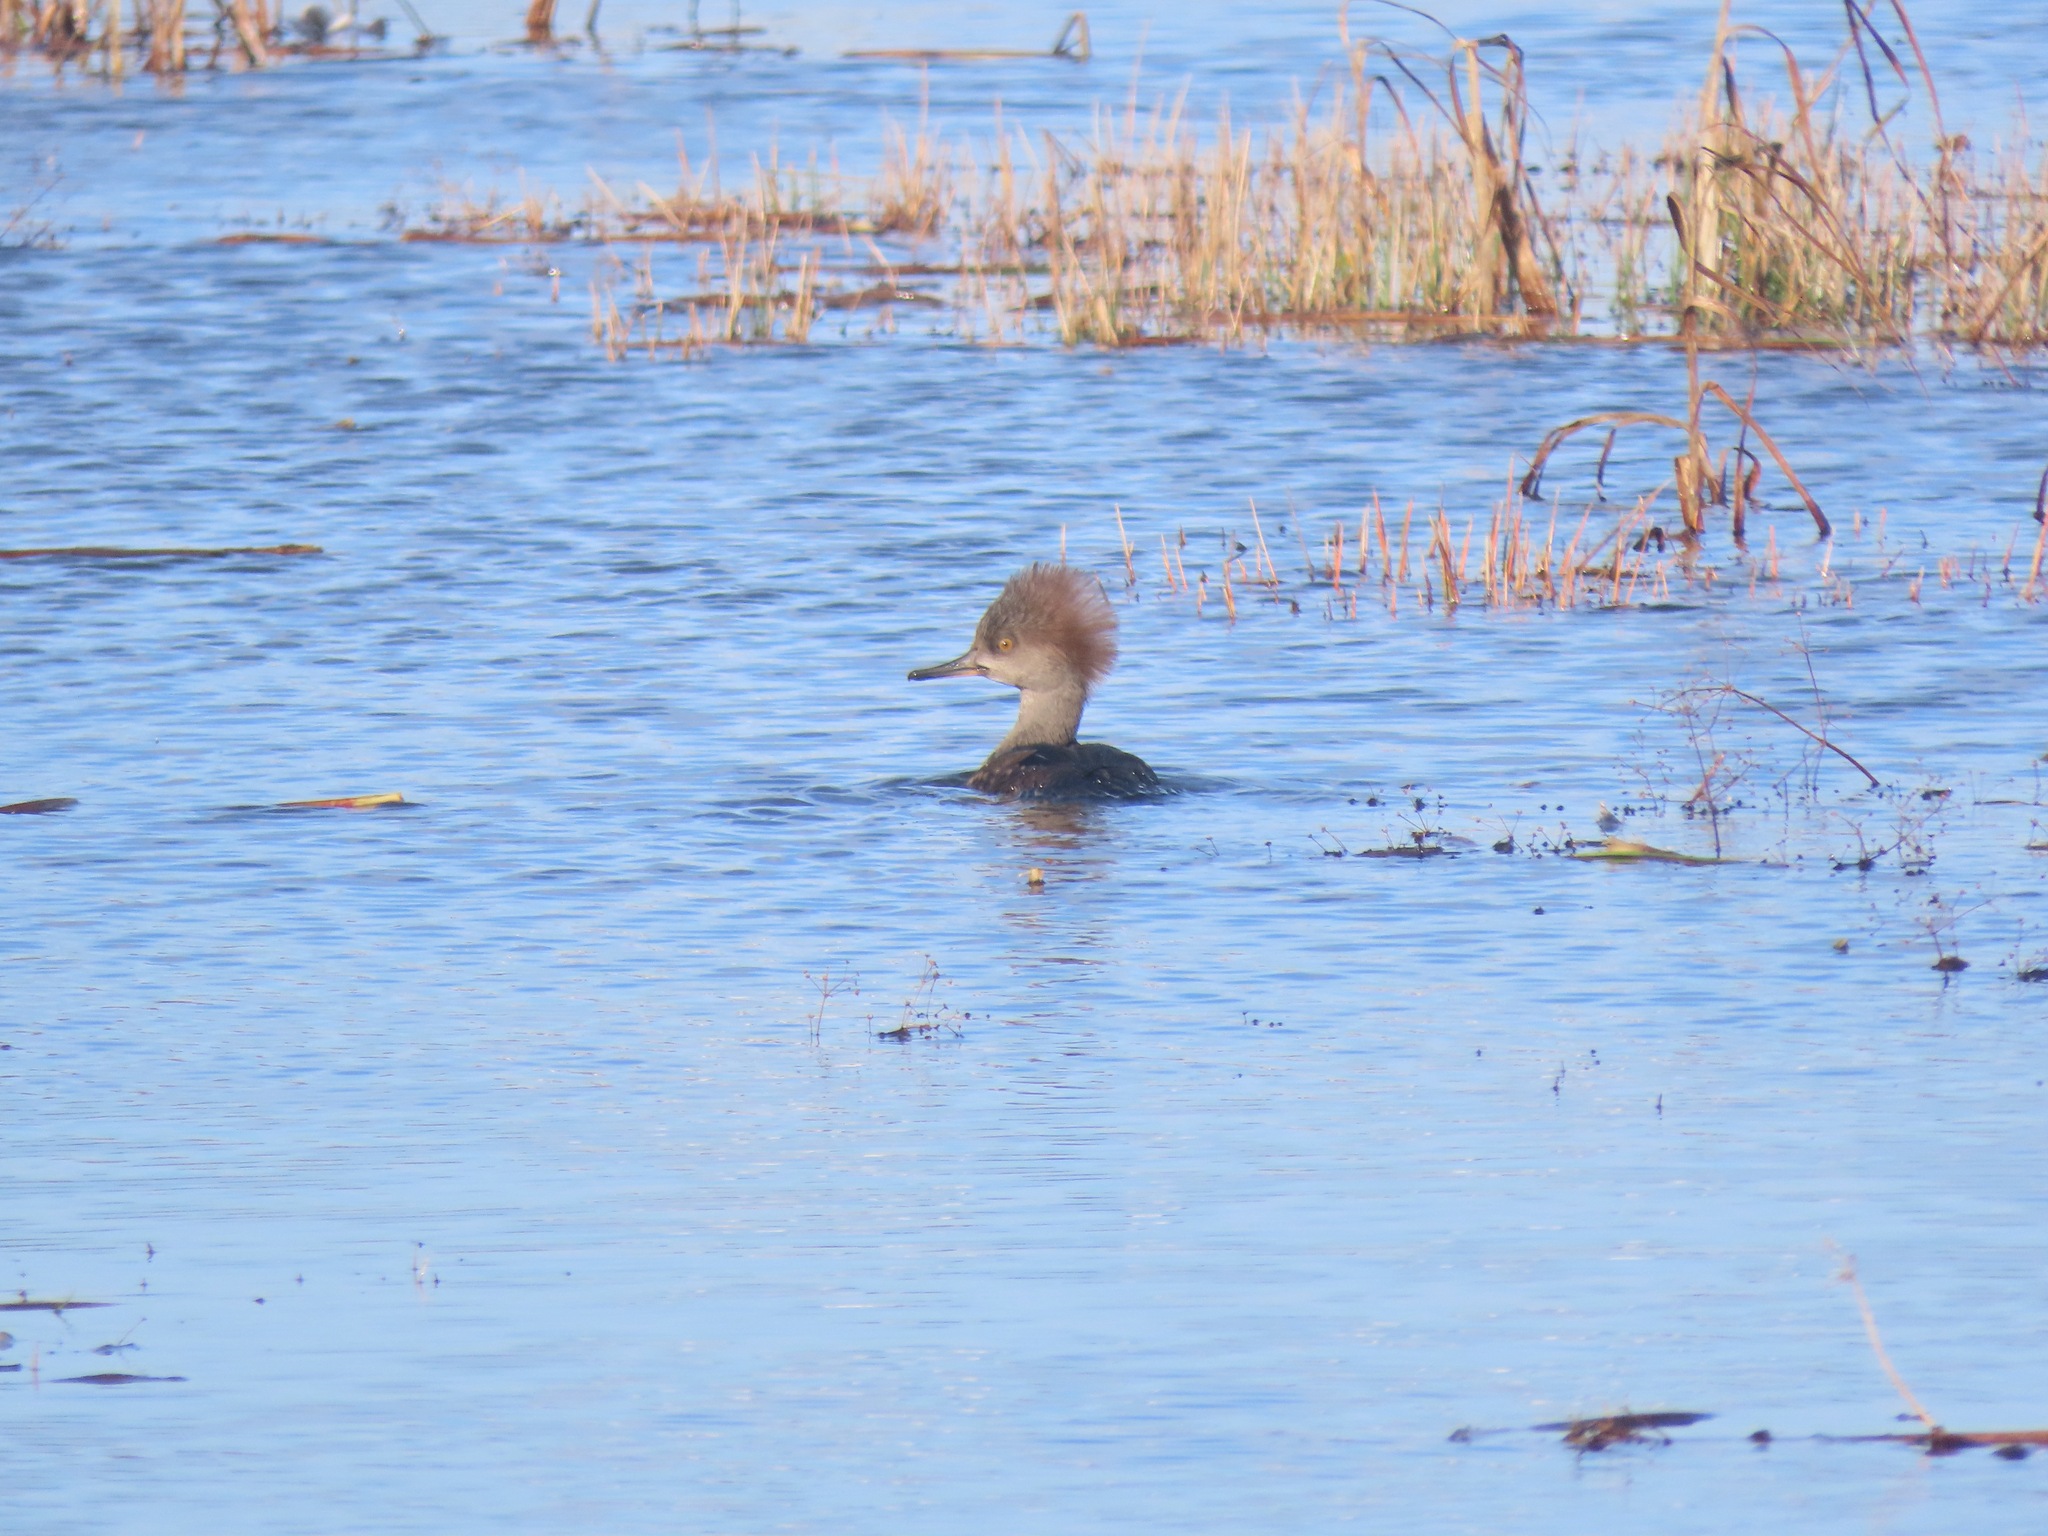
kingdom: Animalia
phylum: Chordata
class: Aves
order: Anseriformes
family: Anatidae
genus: Lophodytes
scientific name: Lophodytes cucullatus
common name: Hooded merganser
